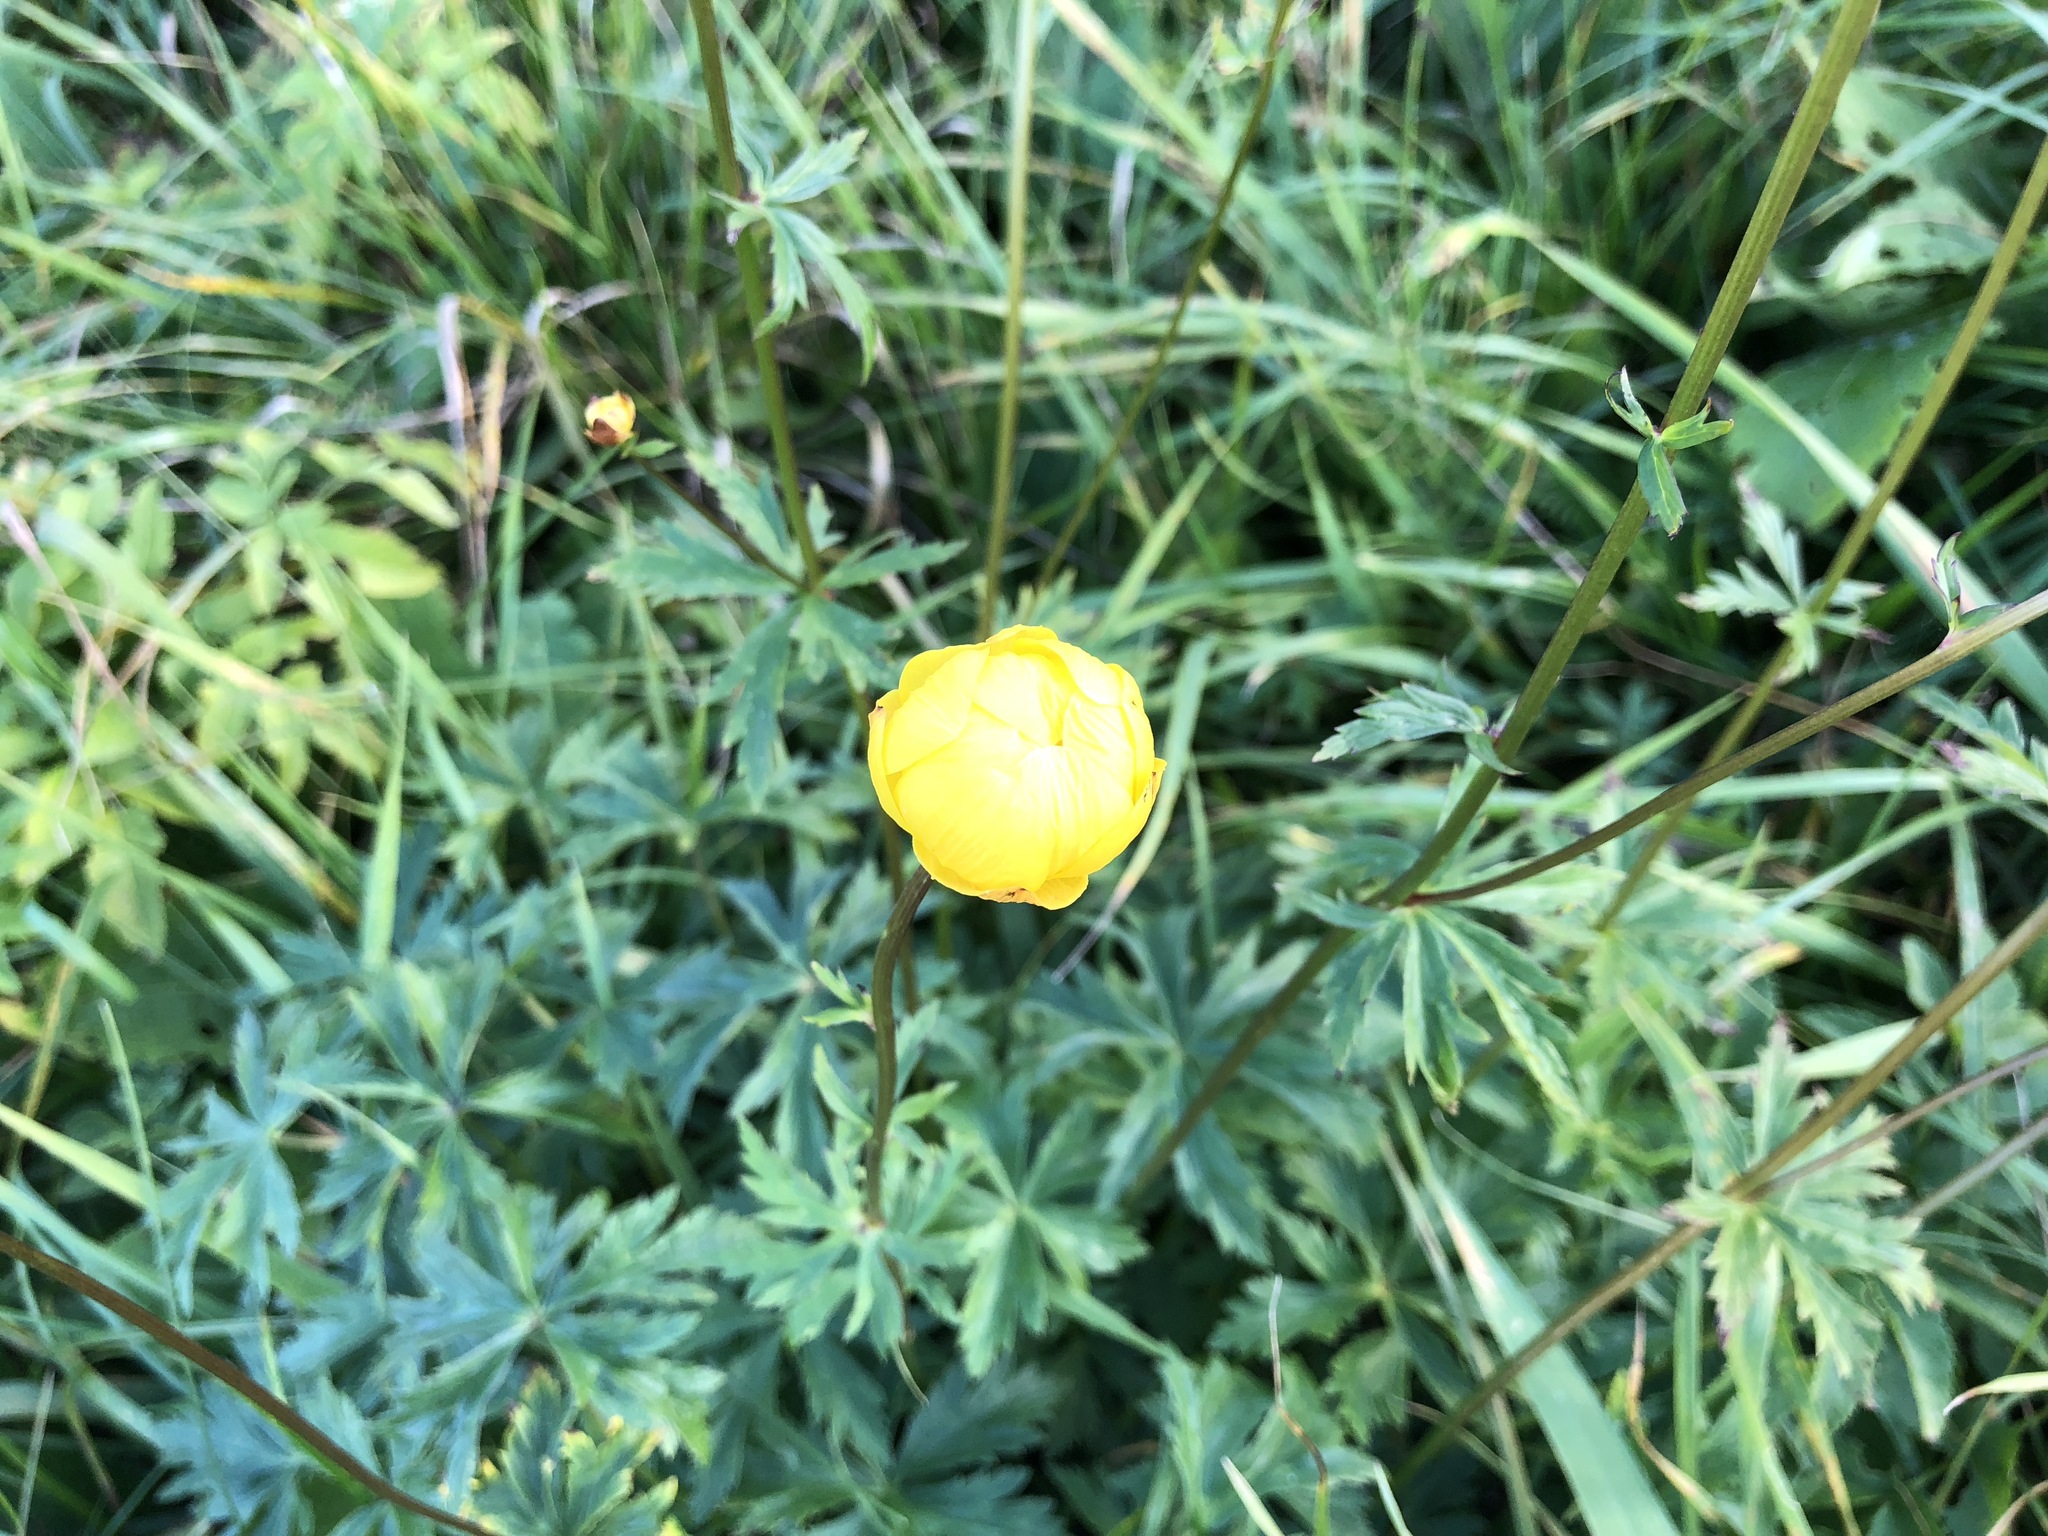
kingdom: Plantae
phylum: Tracheophyta
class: Magnoliopsida
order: Ranunculales
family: Ranunculaceae
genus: Trollius
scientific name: Trollius europaeus
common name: European globeflower
